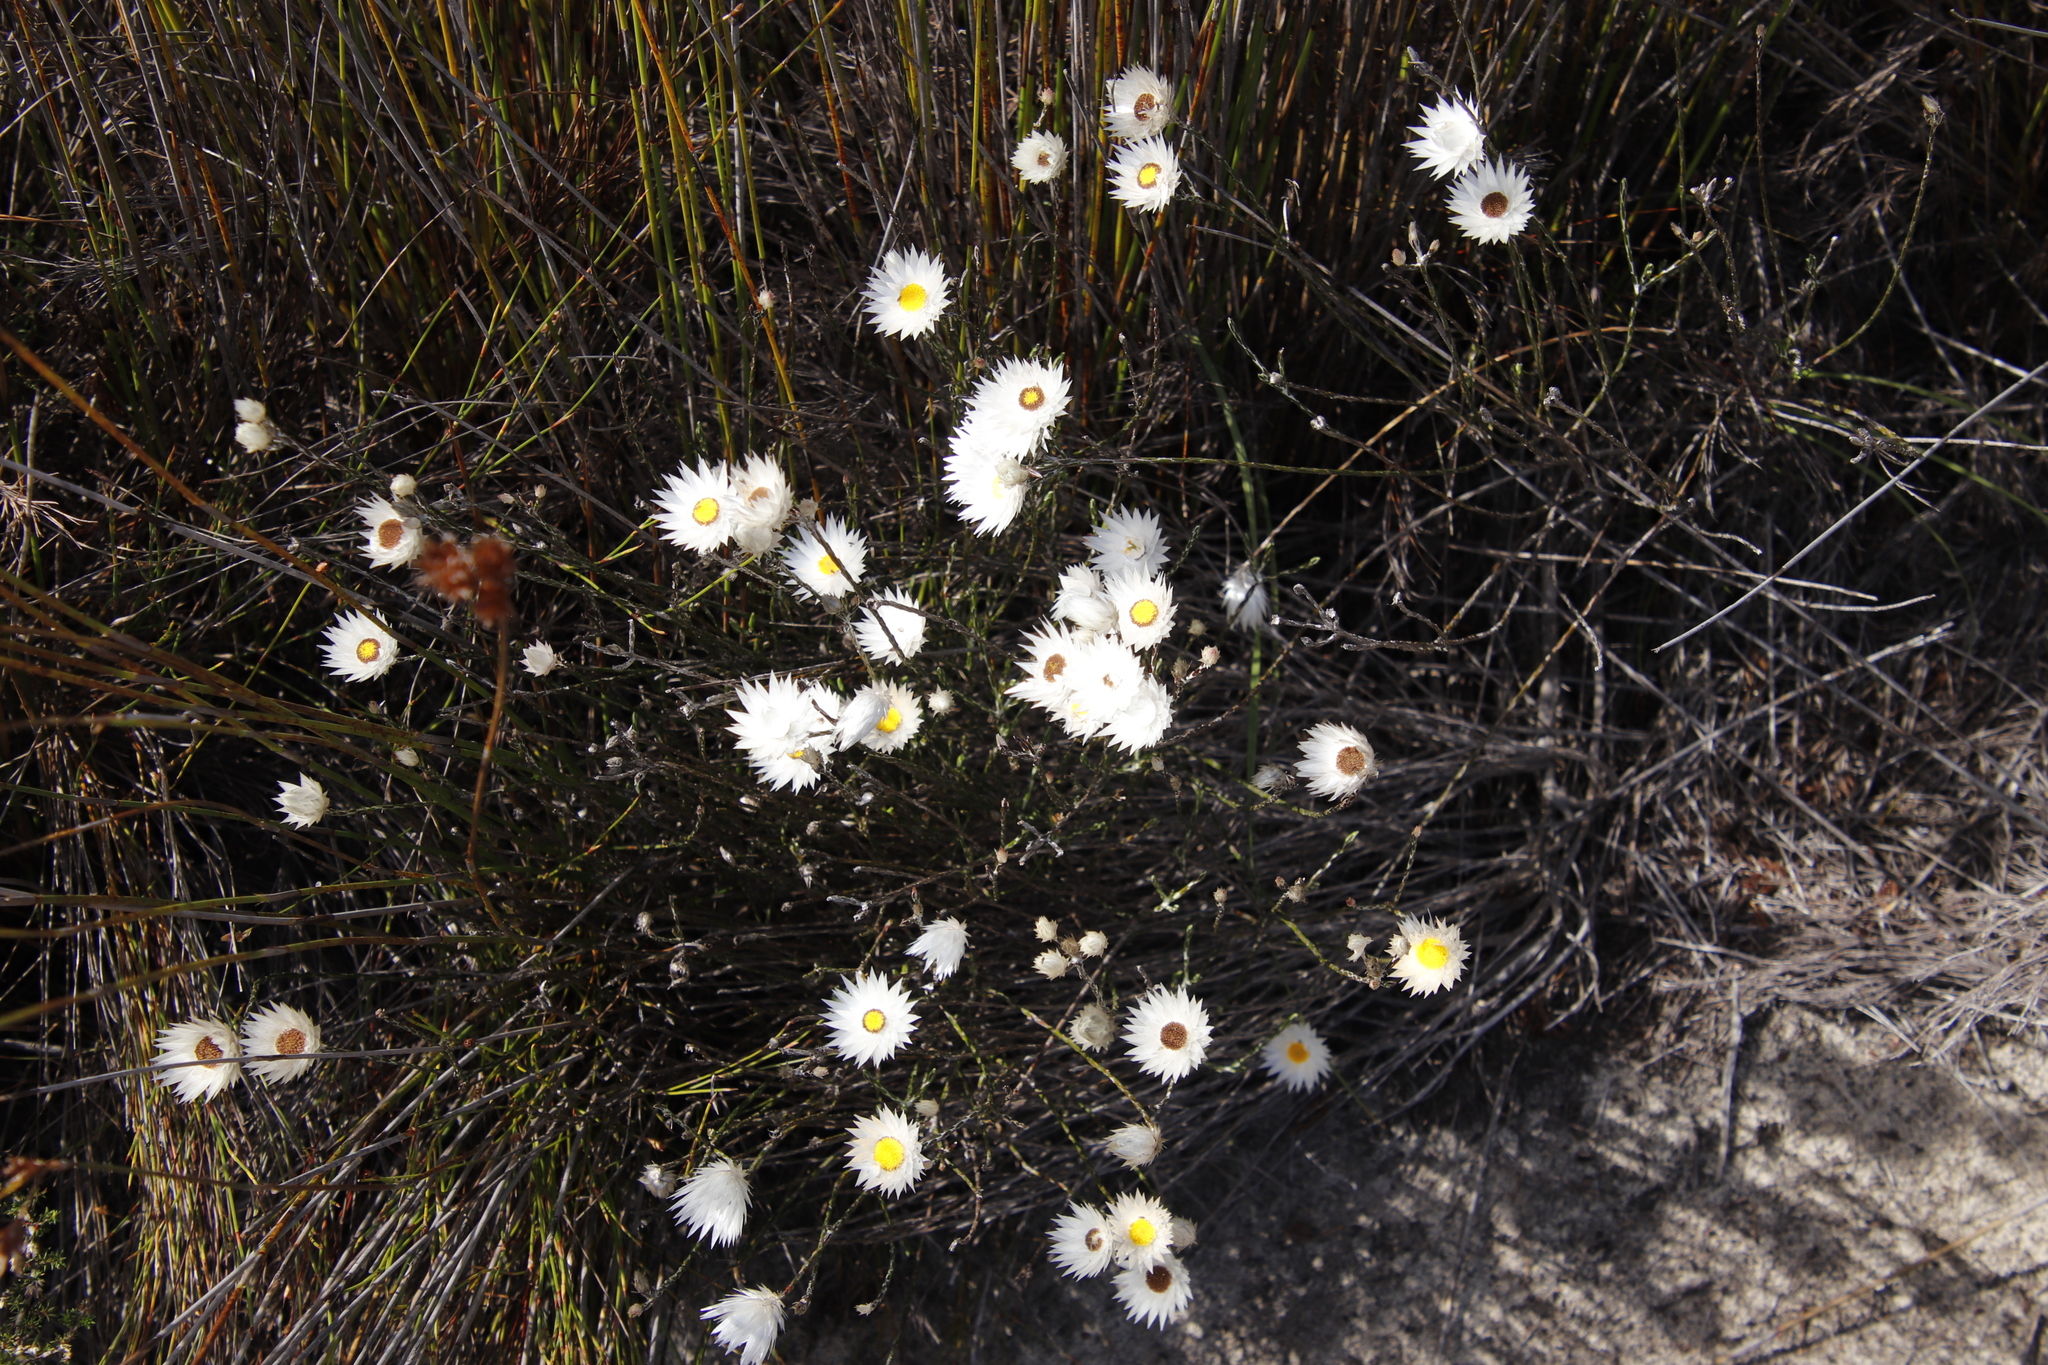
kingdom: Plantae
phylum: Tracheophyta
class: Magnoliopsida
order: Asterales
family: Asteraceae
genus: Edmondia
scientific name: Edmondia sesamoides
